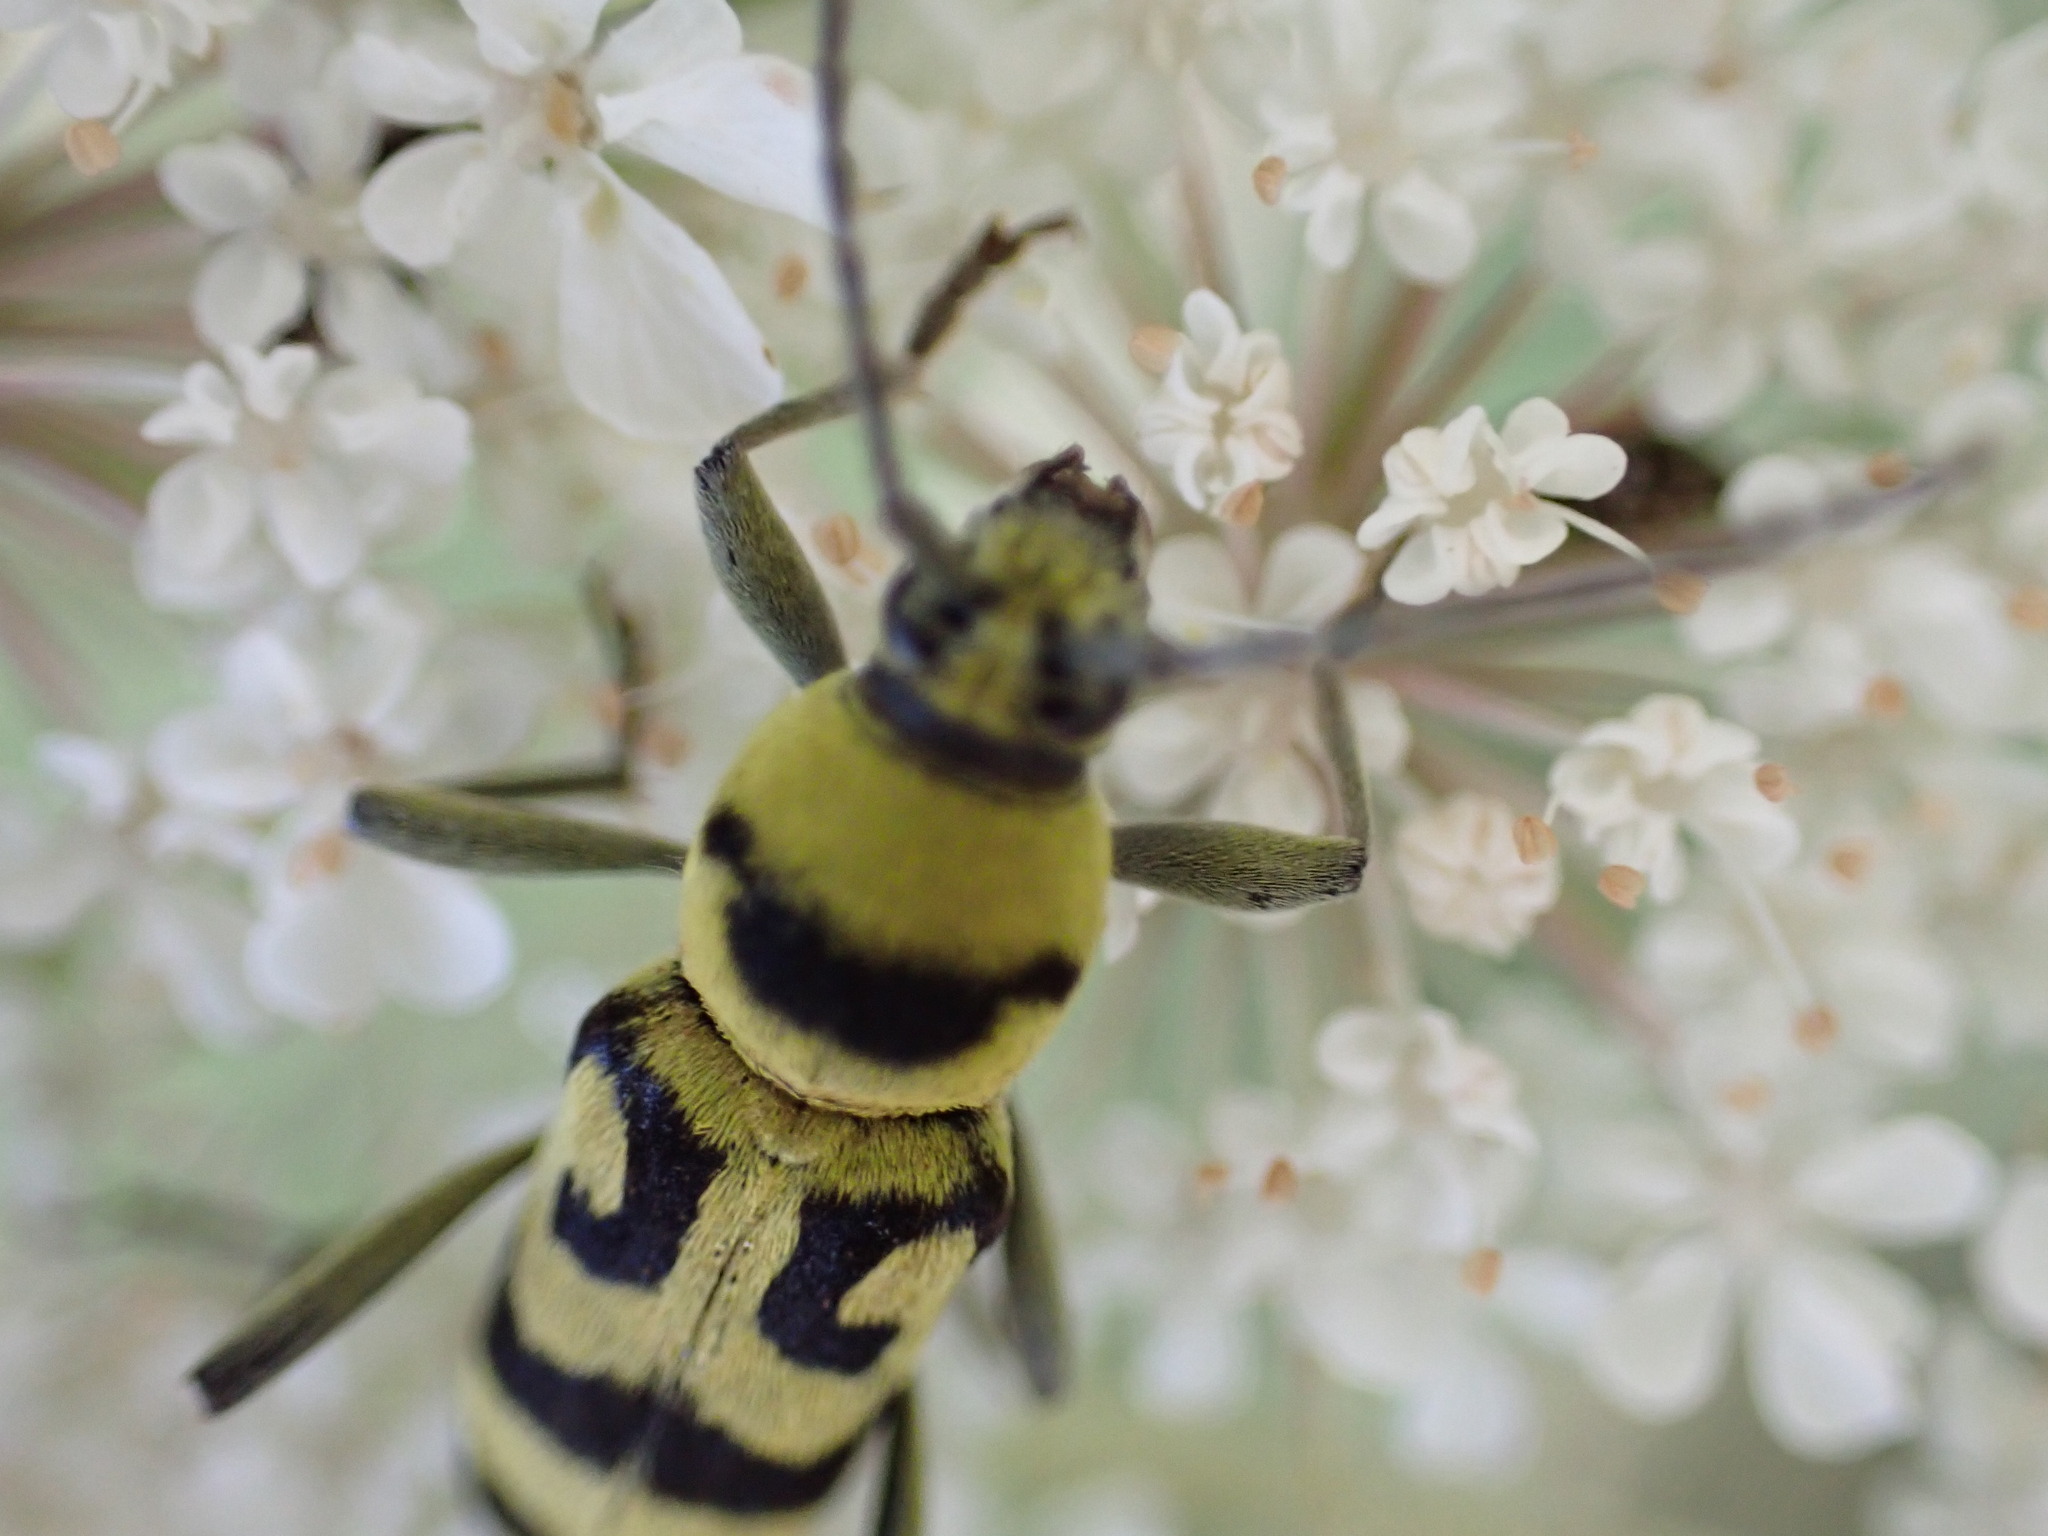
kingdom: Animalia
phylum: Arthropoda
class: Insecta
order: Coleoptera
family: Cerambycidae
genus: Chlorophorus
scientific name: Chlorophorus varius
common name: Grape wood borer
